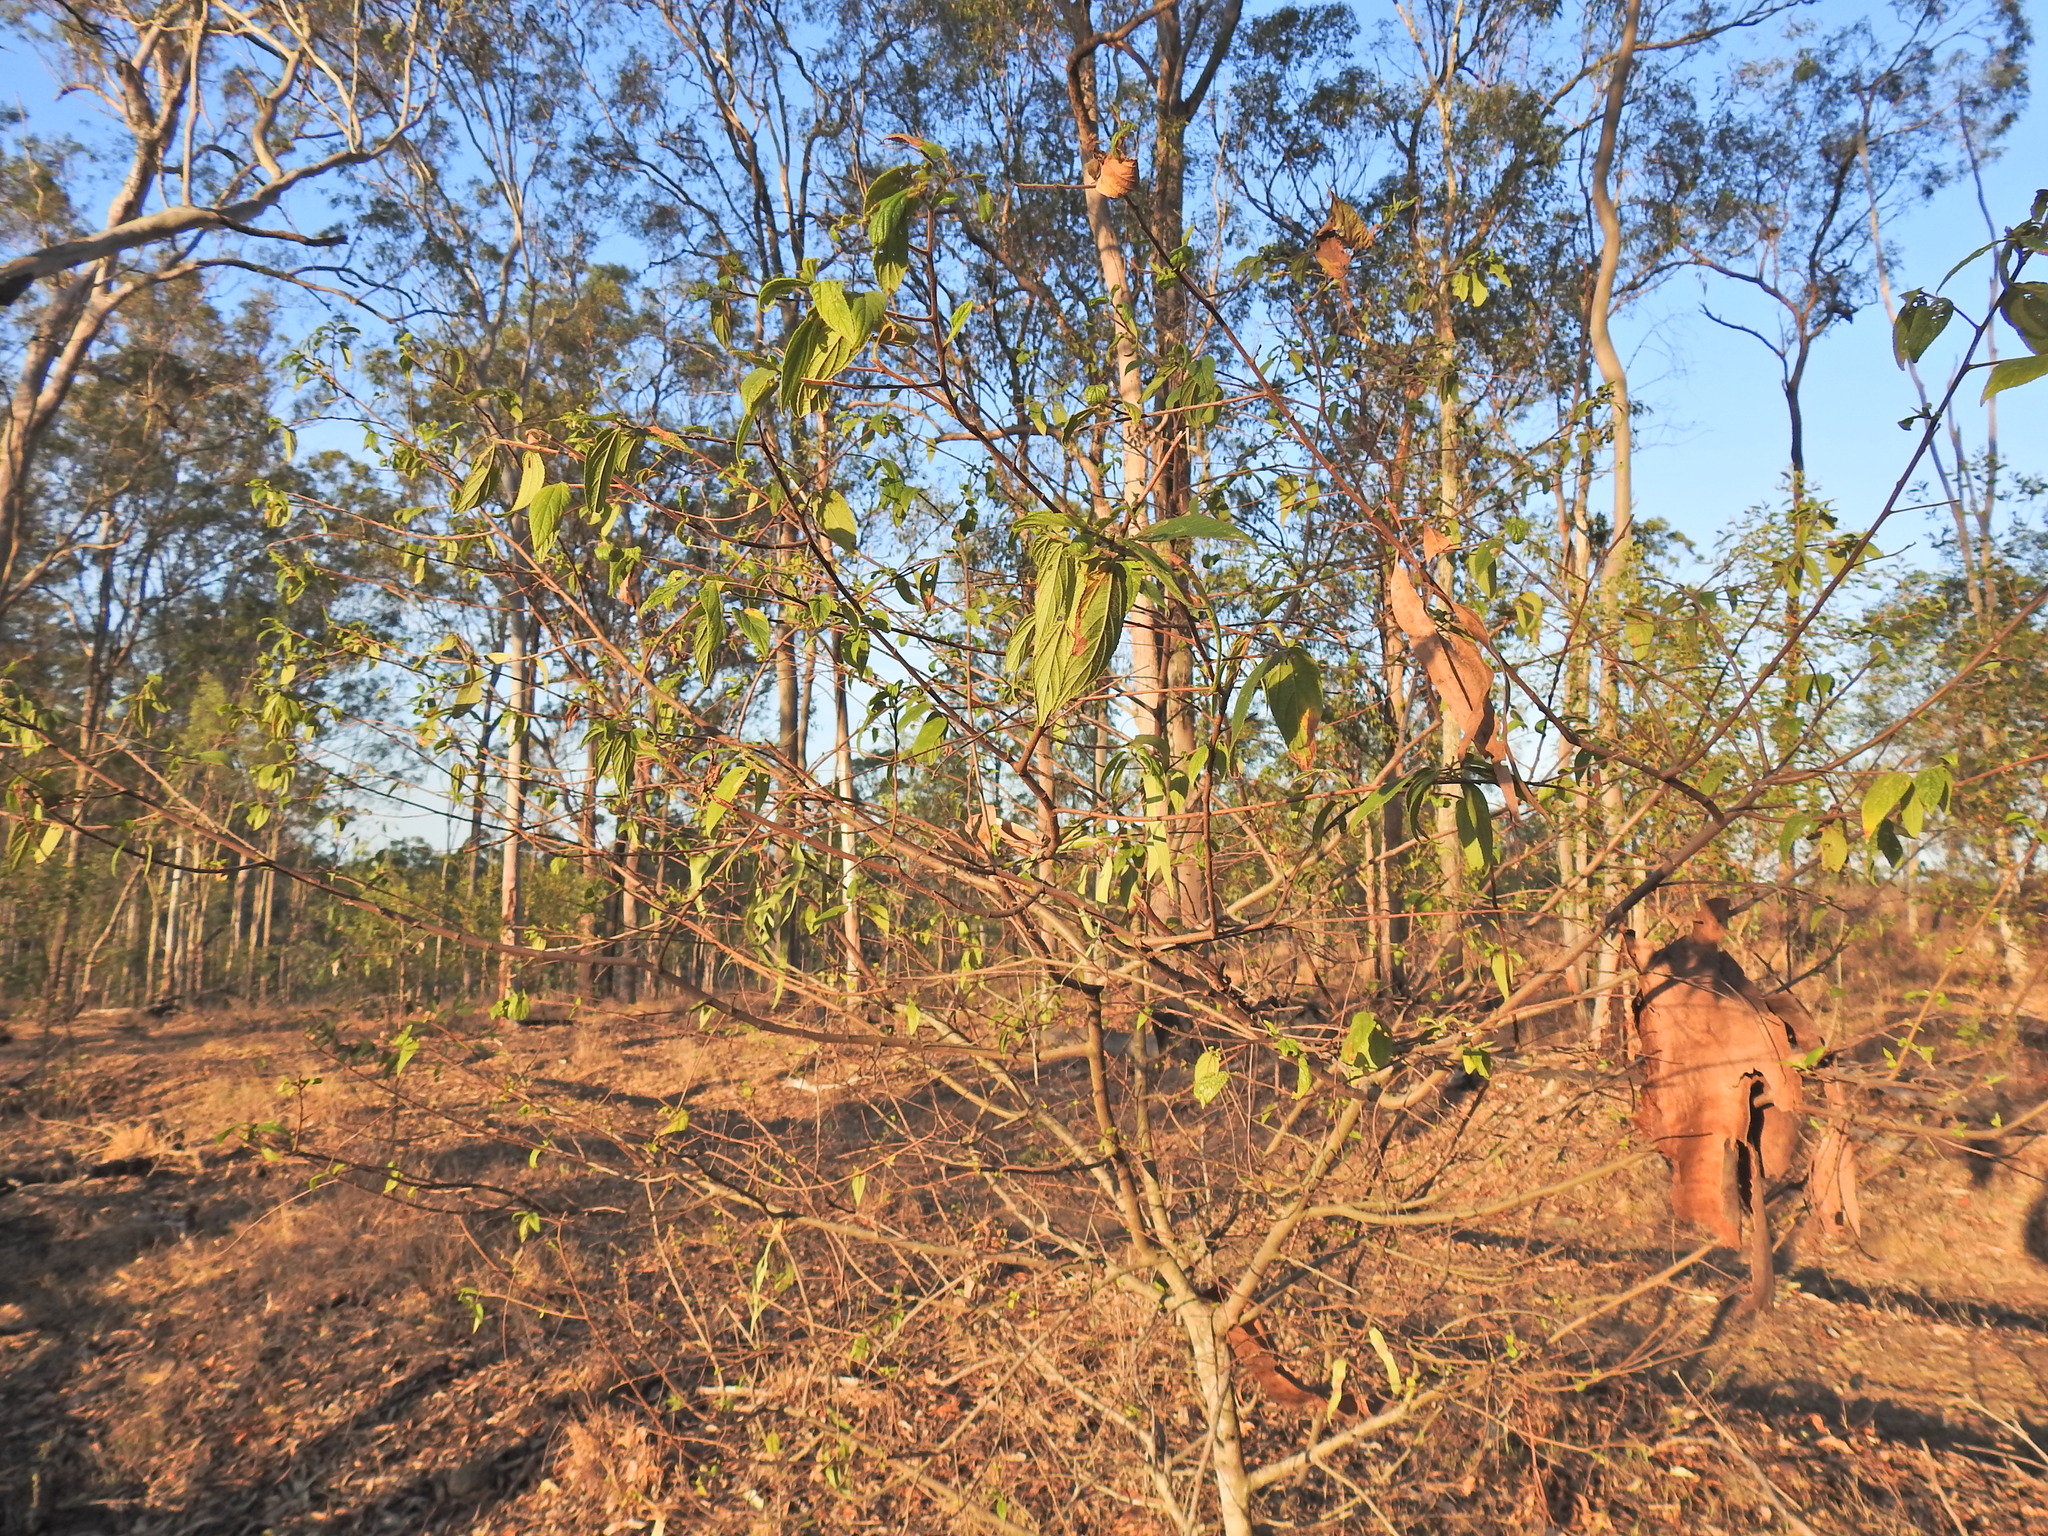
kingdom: Plantae
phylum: Tracheophyta
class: Magnoliopsida
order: Rosales
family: Cannabaceae
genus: Trema
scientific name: Trema tomentosum
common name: Peach-leaf-poisonbush
